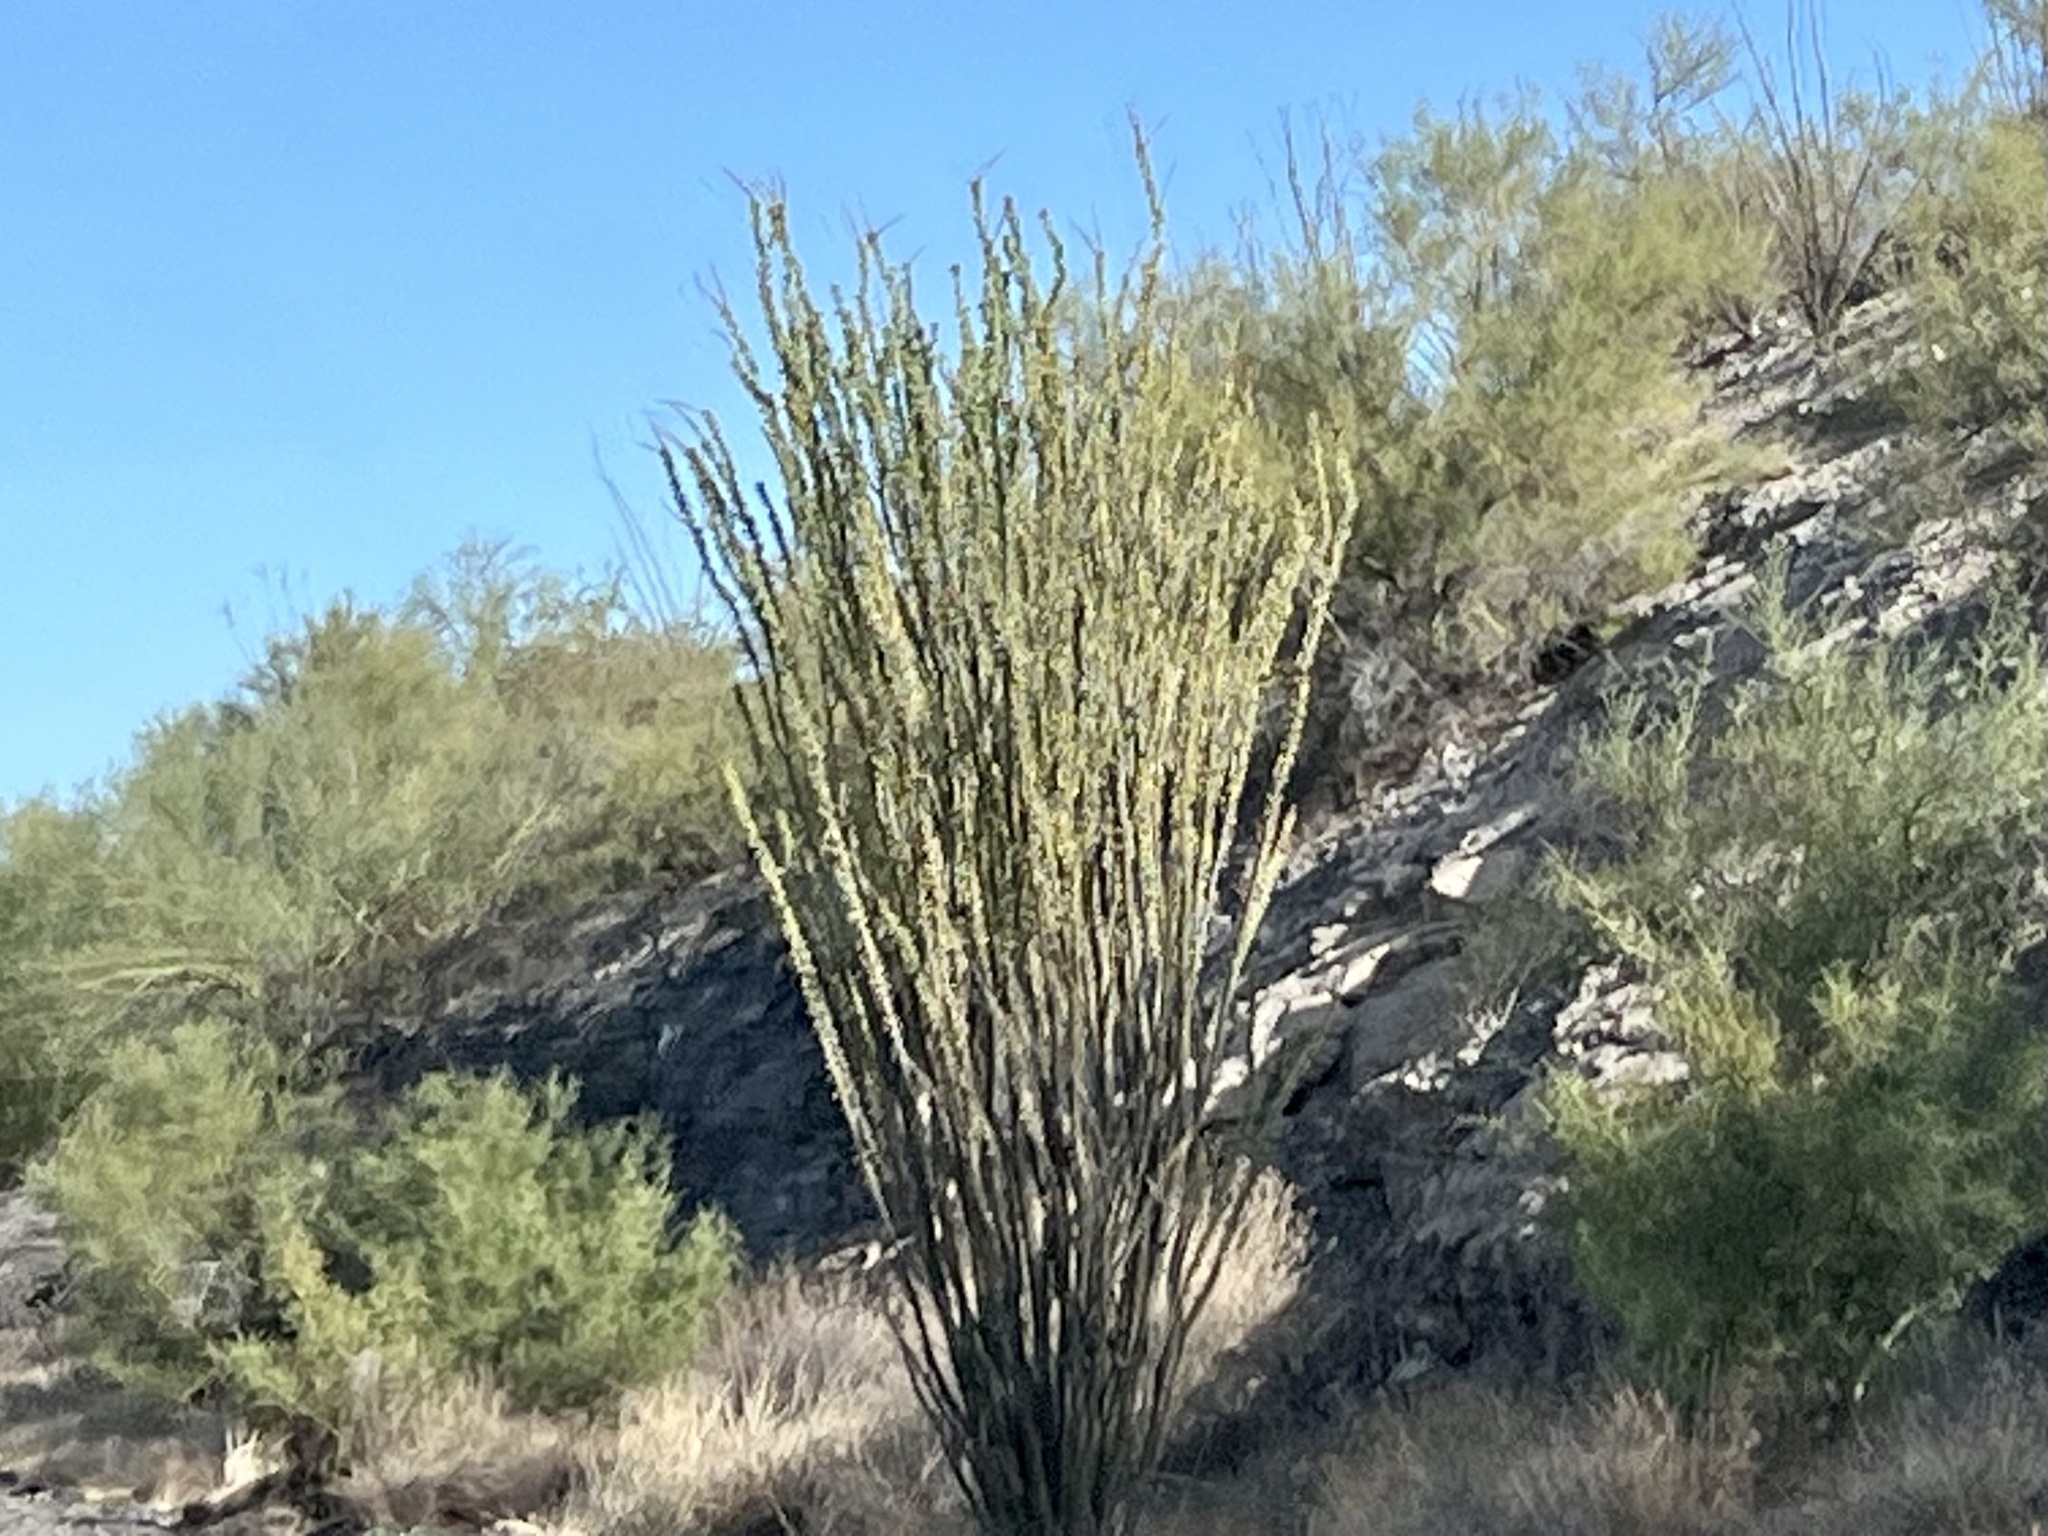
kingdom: Plantae
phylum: Tracheophyta
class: Magnoliopsida
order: Ericales
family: Fouquieriaceae
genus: Fouquieria
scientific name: Fouquieria splendens
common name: Vine-cactus
